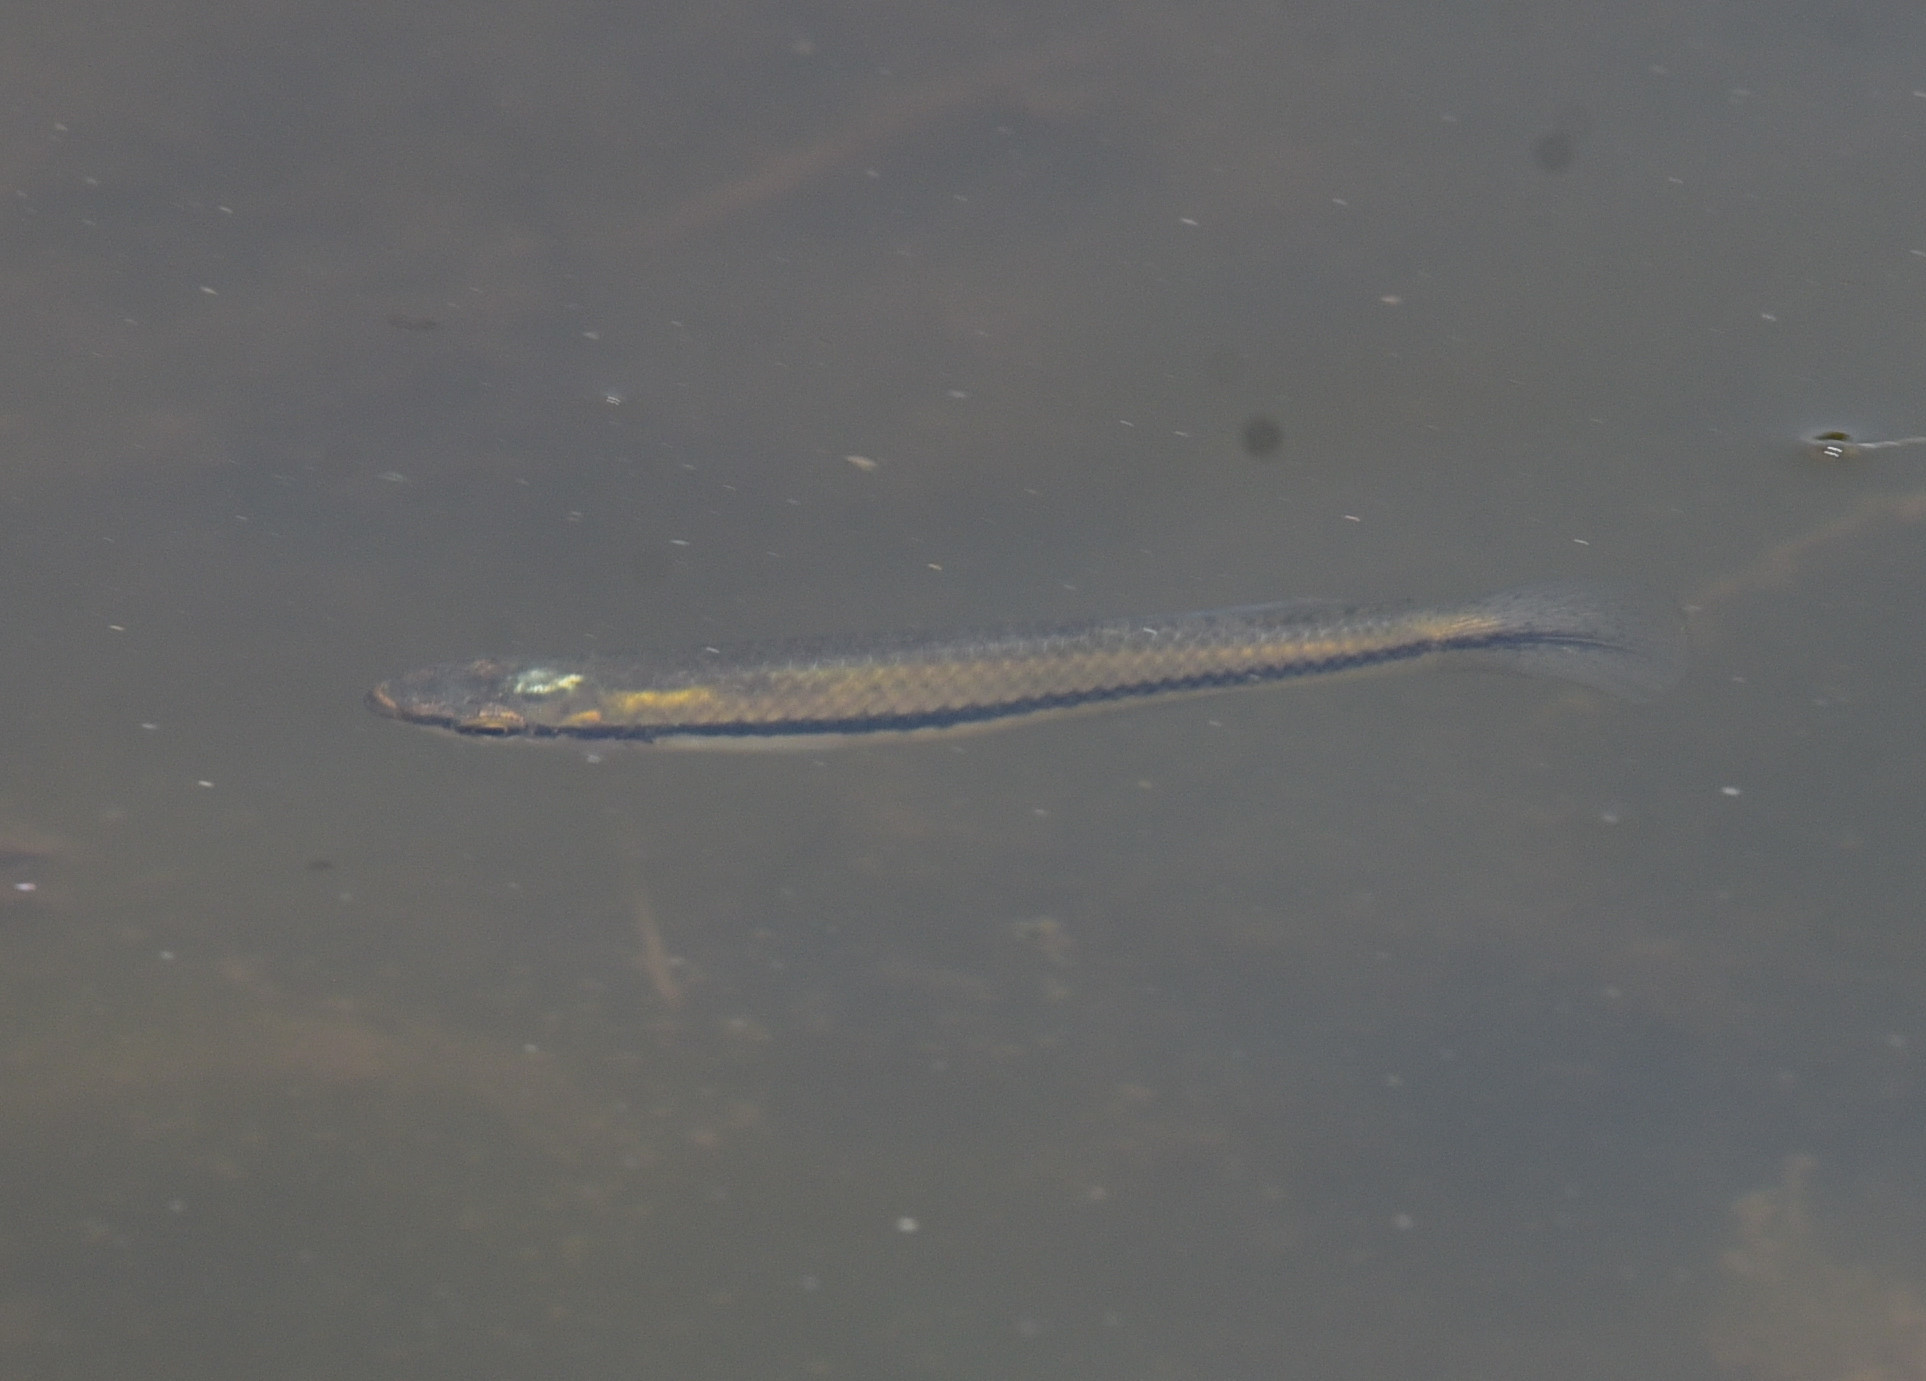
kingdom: Animalia
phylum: Chordata
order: Cyprinodontiformes
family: Fundulidae
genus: Fundulus
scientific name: Fundulus notatus
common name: Blackstripe topminnow
